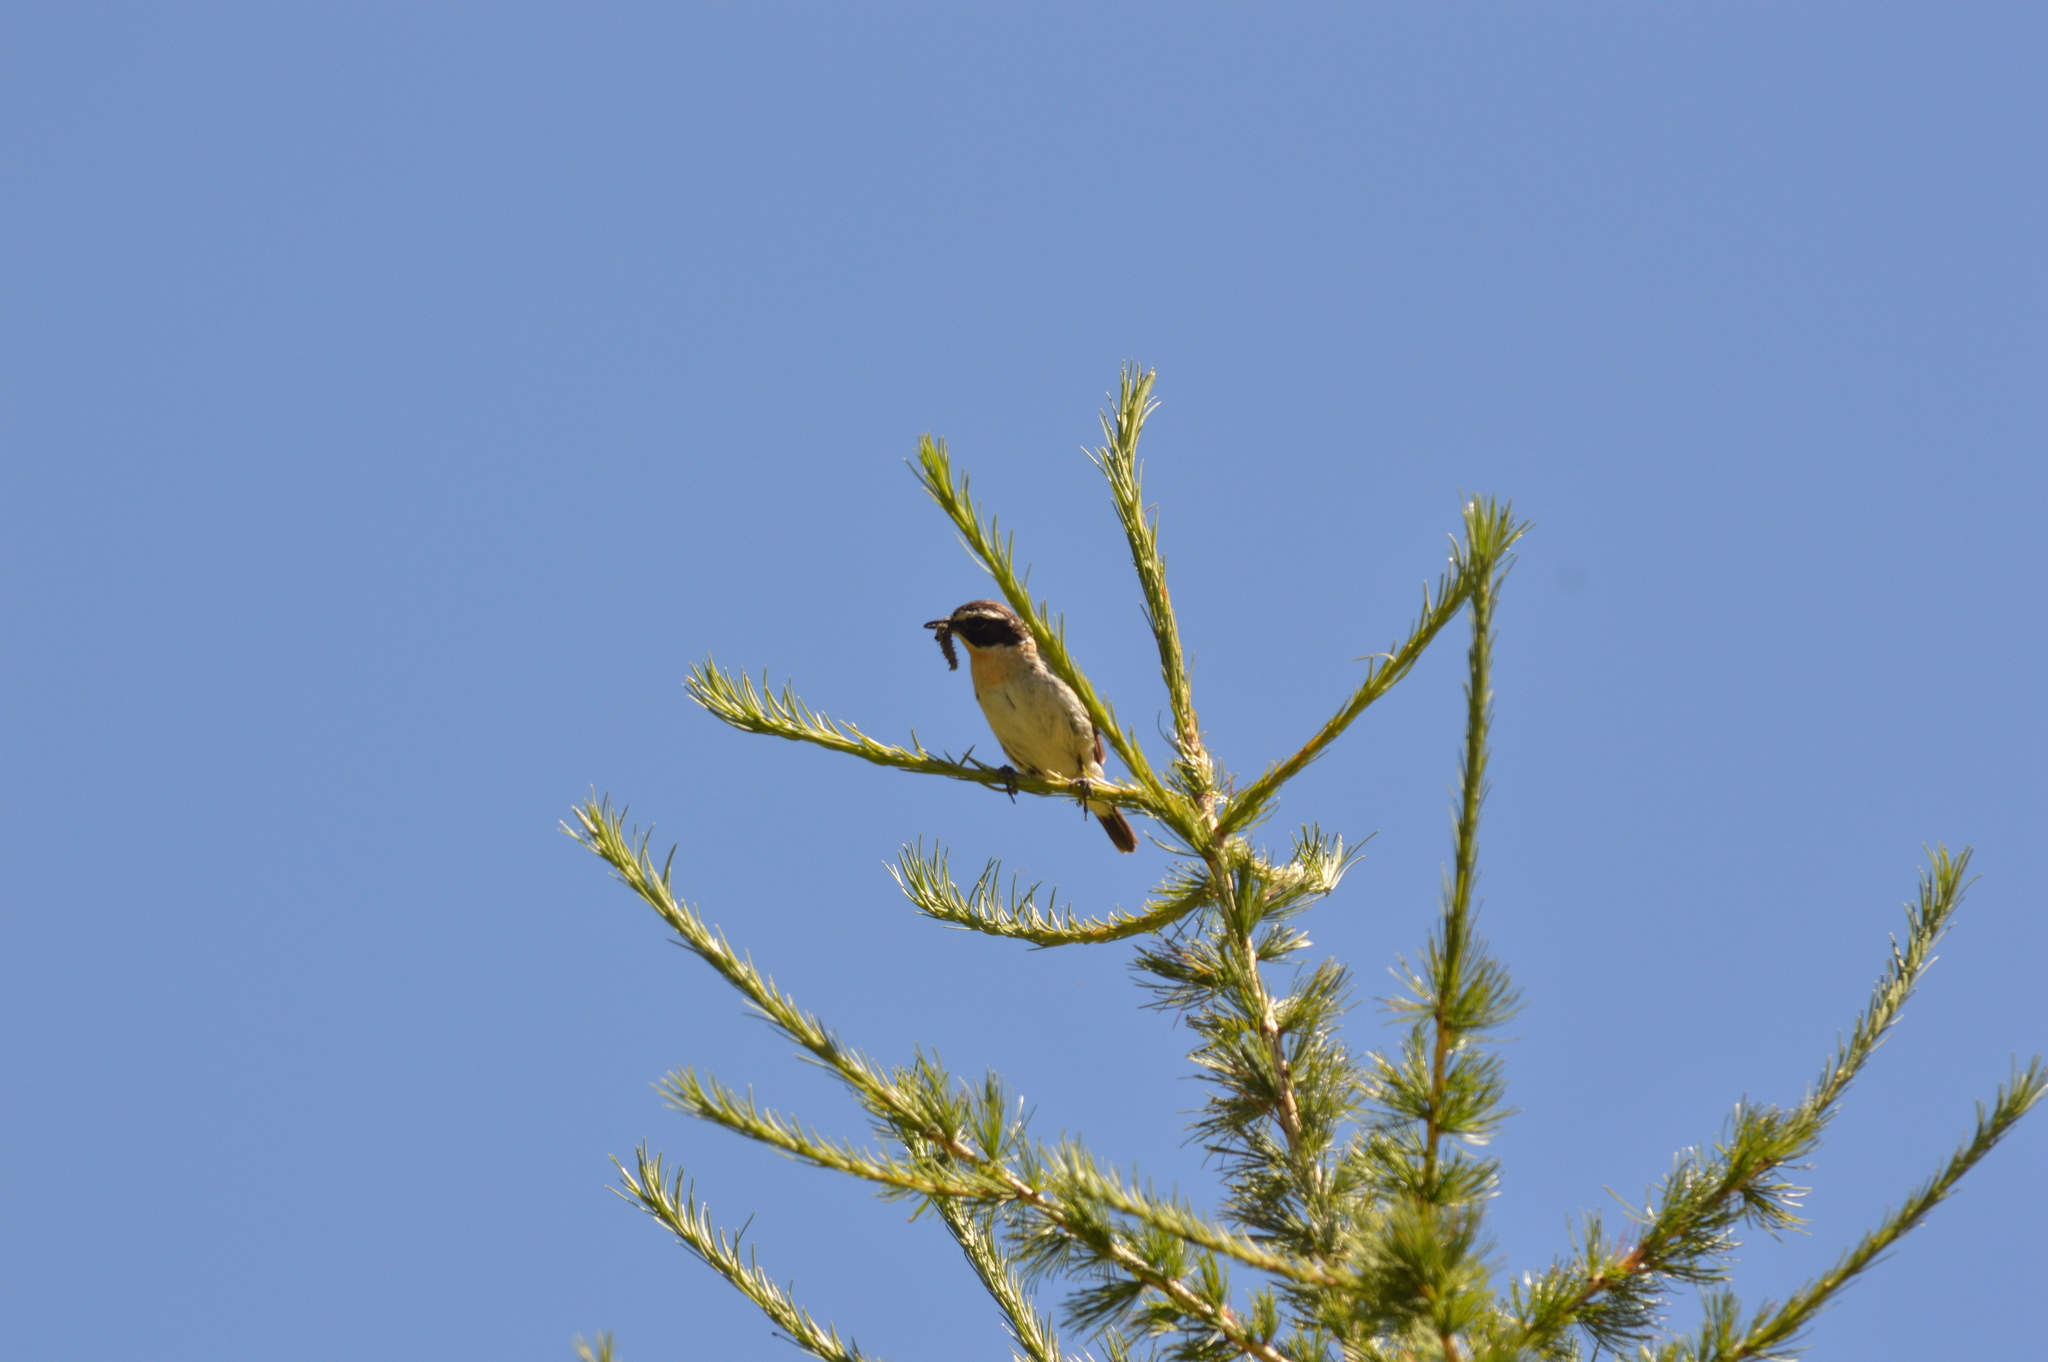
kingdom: Animalia
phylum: Chordata
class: Aves
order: Passeriformes
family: Muscicapidae
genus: Saxicola
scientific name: Saxicola rubetra
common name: Whinchat
